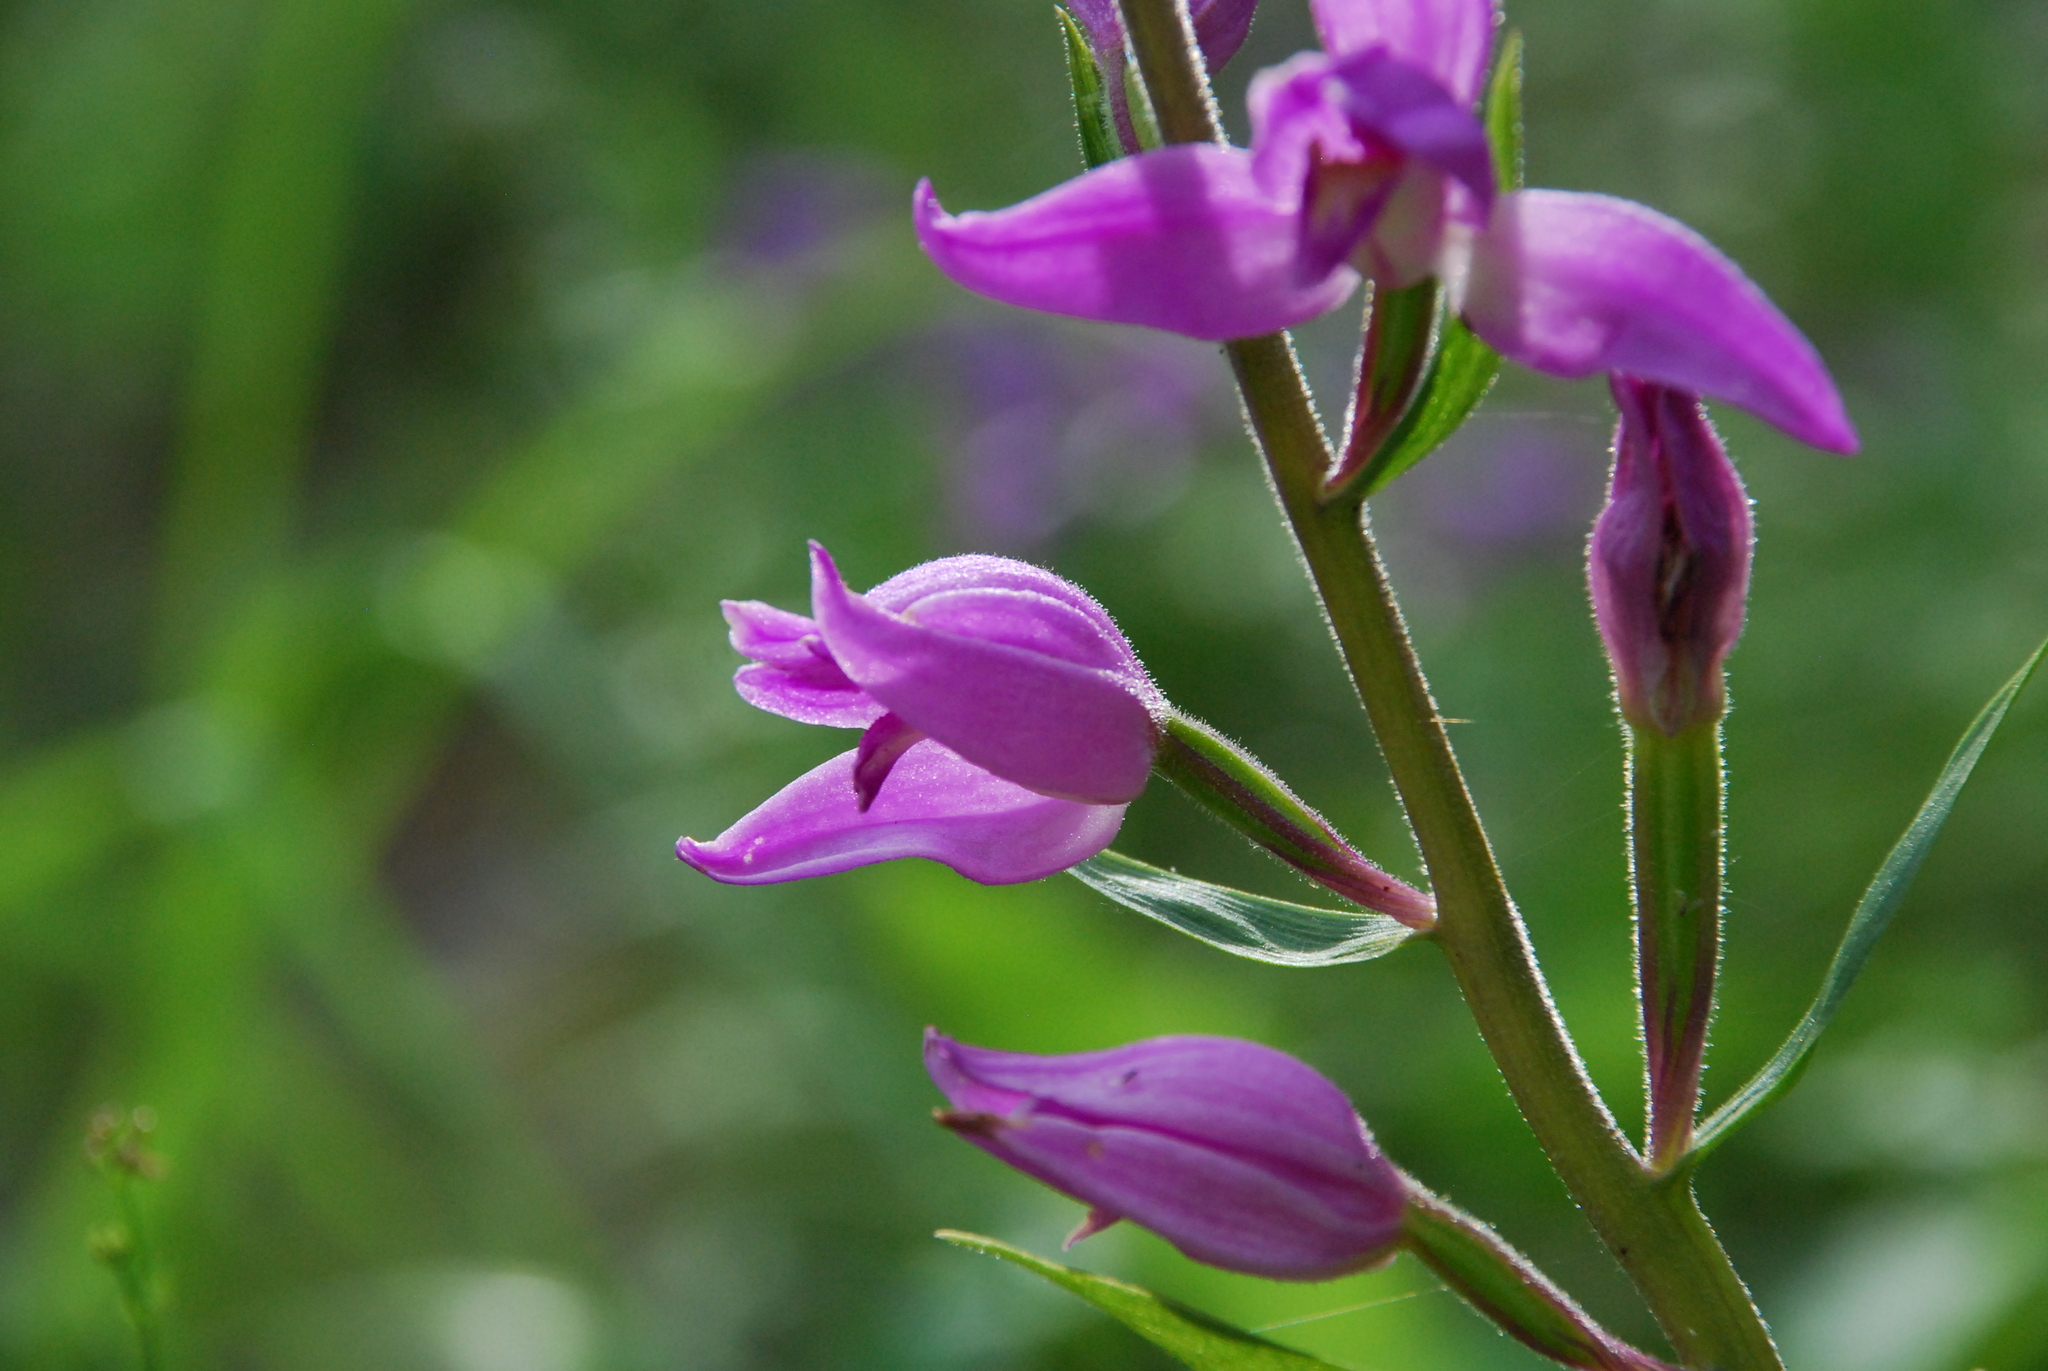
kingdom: Plantae
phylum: Tracheophyta
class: Liliopsida
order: Asparagales
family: Orchidaceae
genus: Cephalanthera
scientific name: Cephalanthera rubra
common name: Red helleborine
